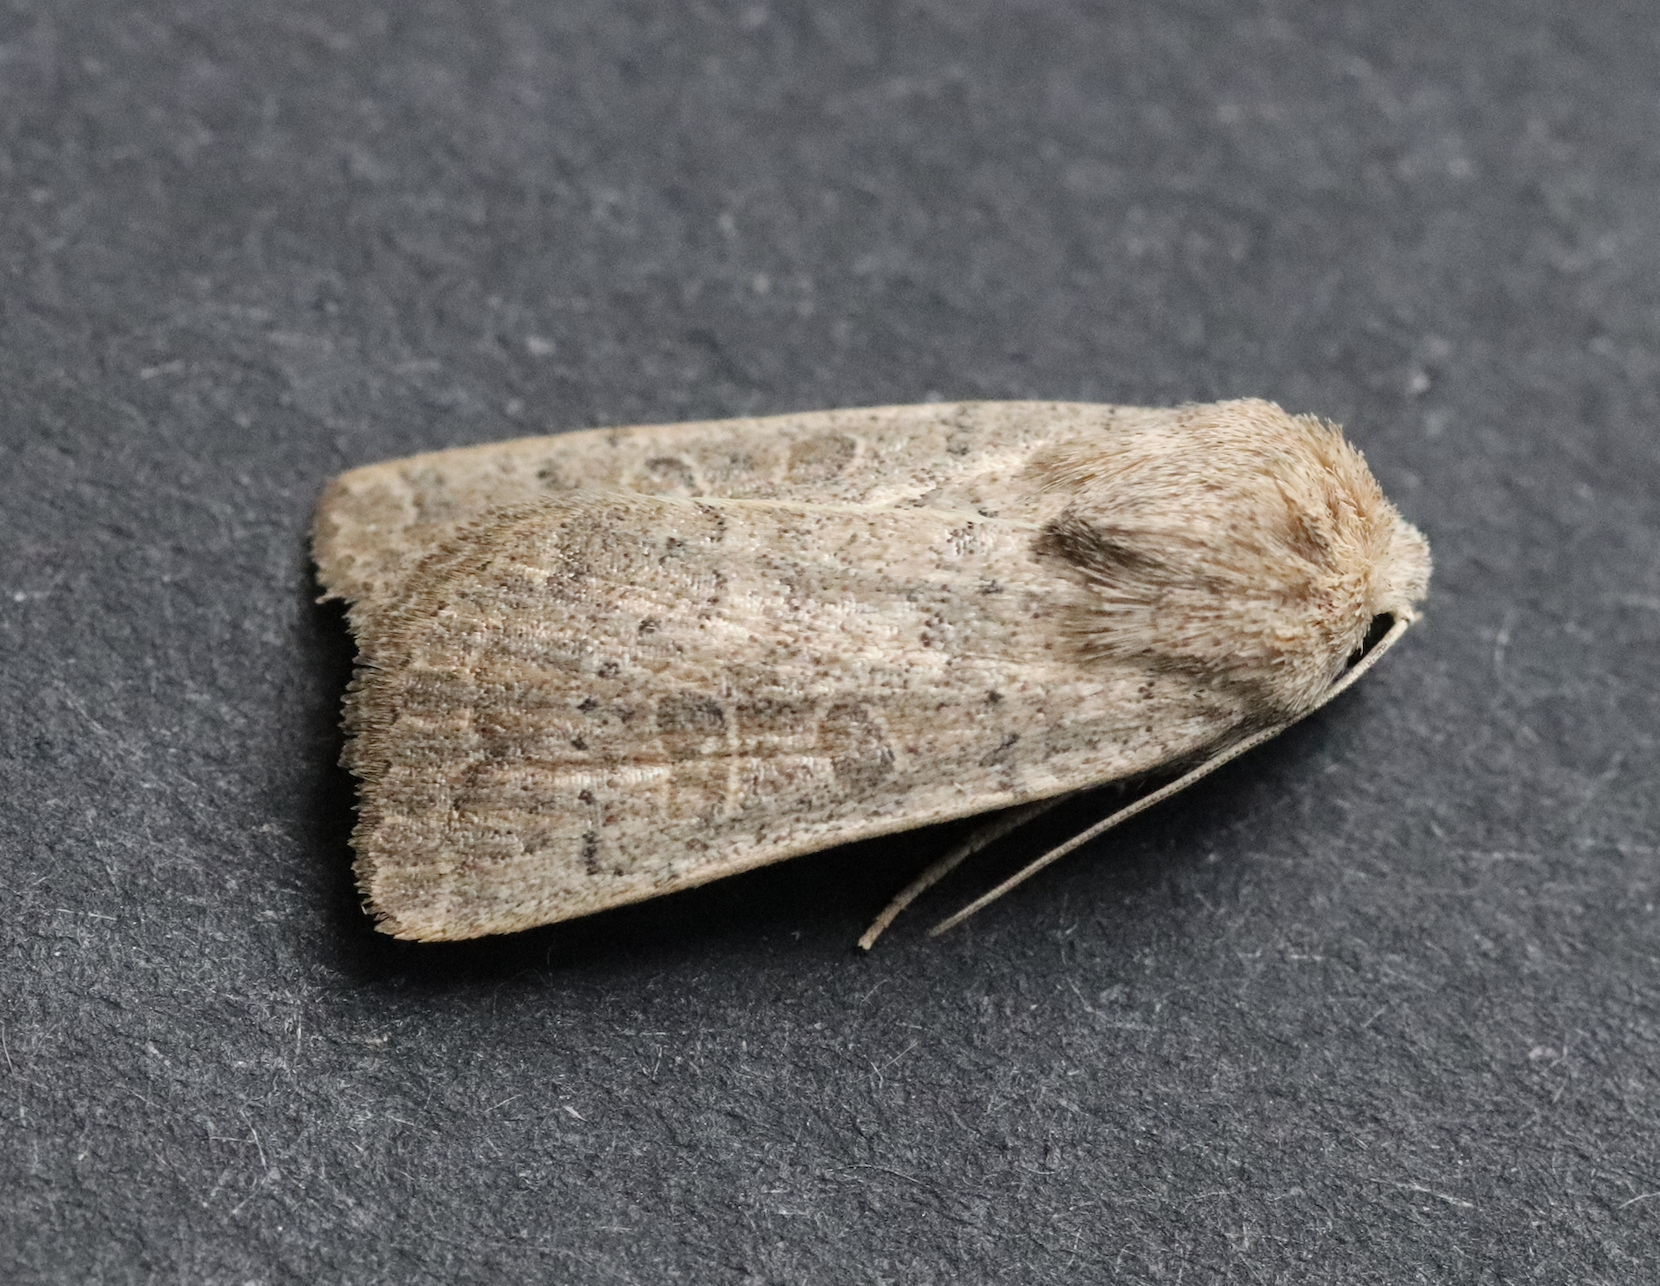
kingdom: Animalia
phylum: Arthropoda
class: Insecta
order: Lepidoptera
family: Noctuidae
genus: Hoplodrina
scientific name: Hoplodrina ambigua
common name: Vine's rustic
